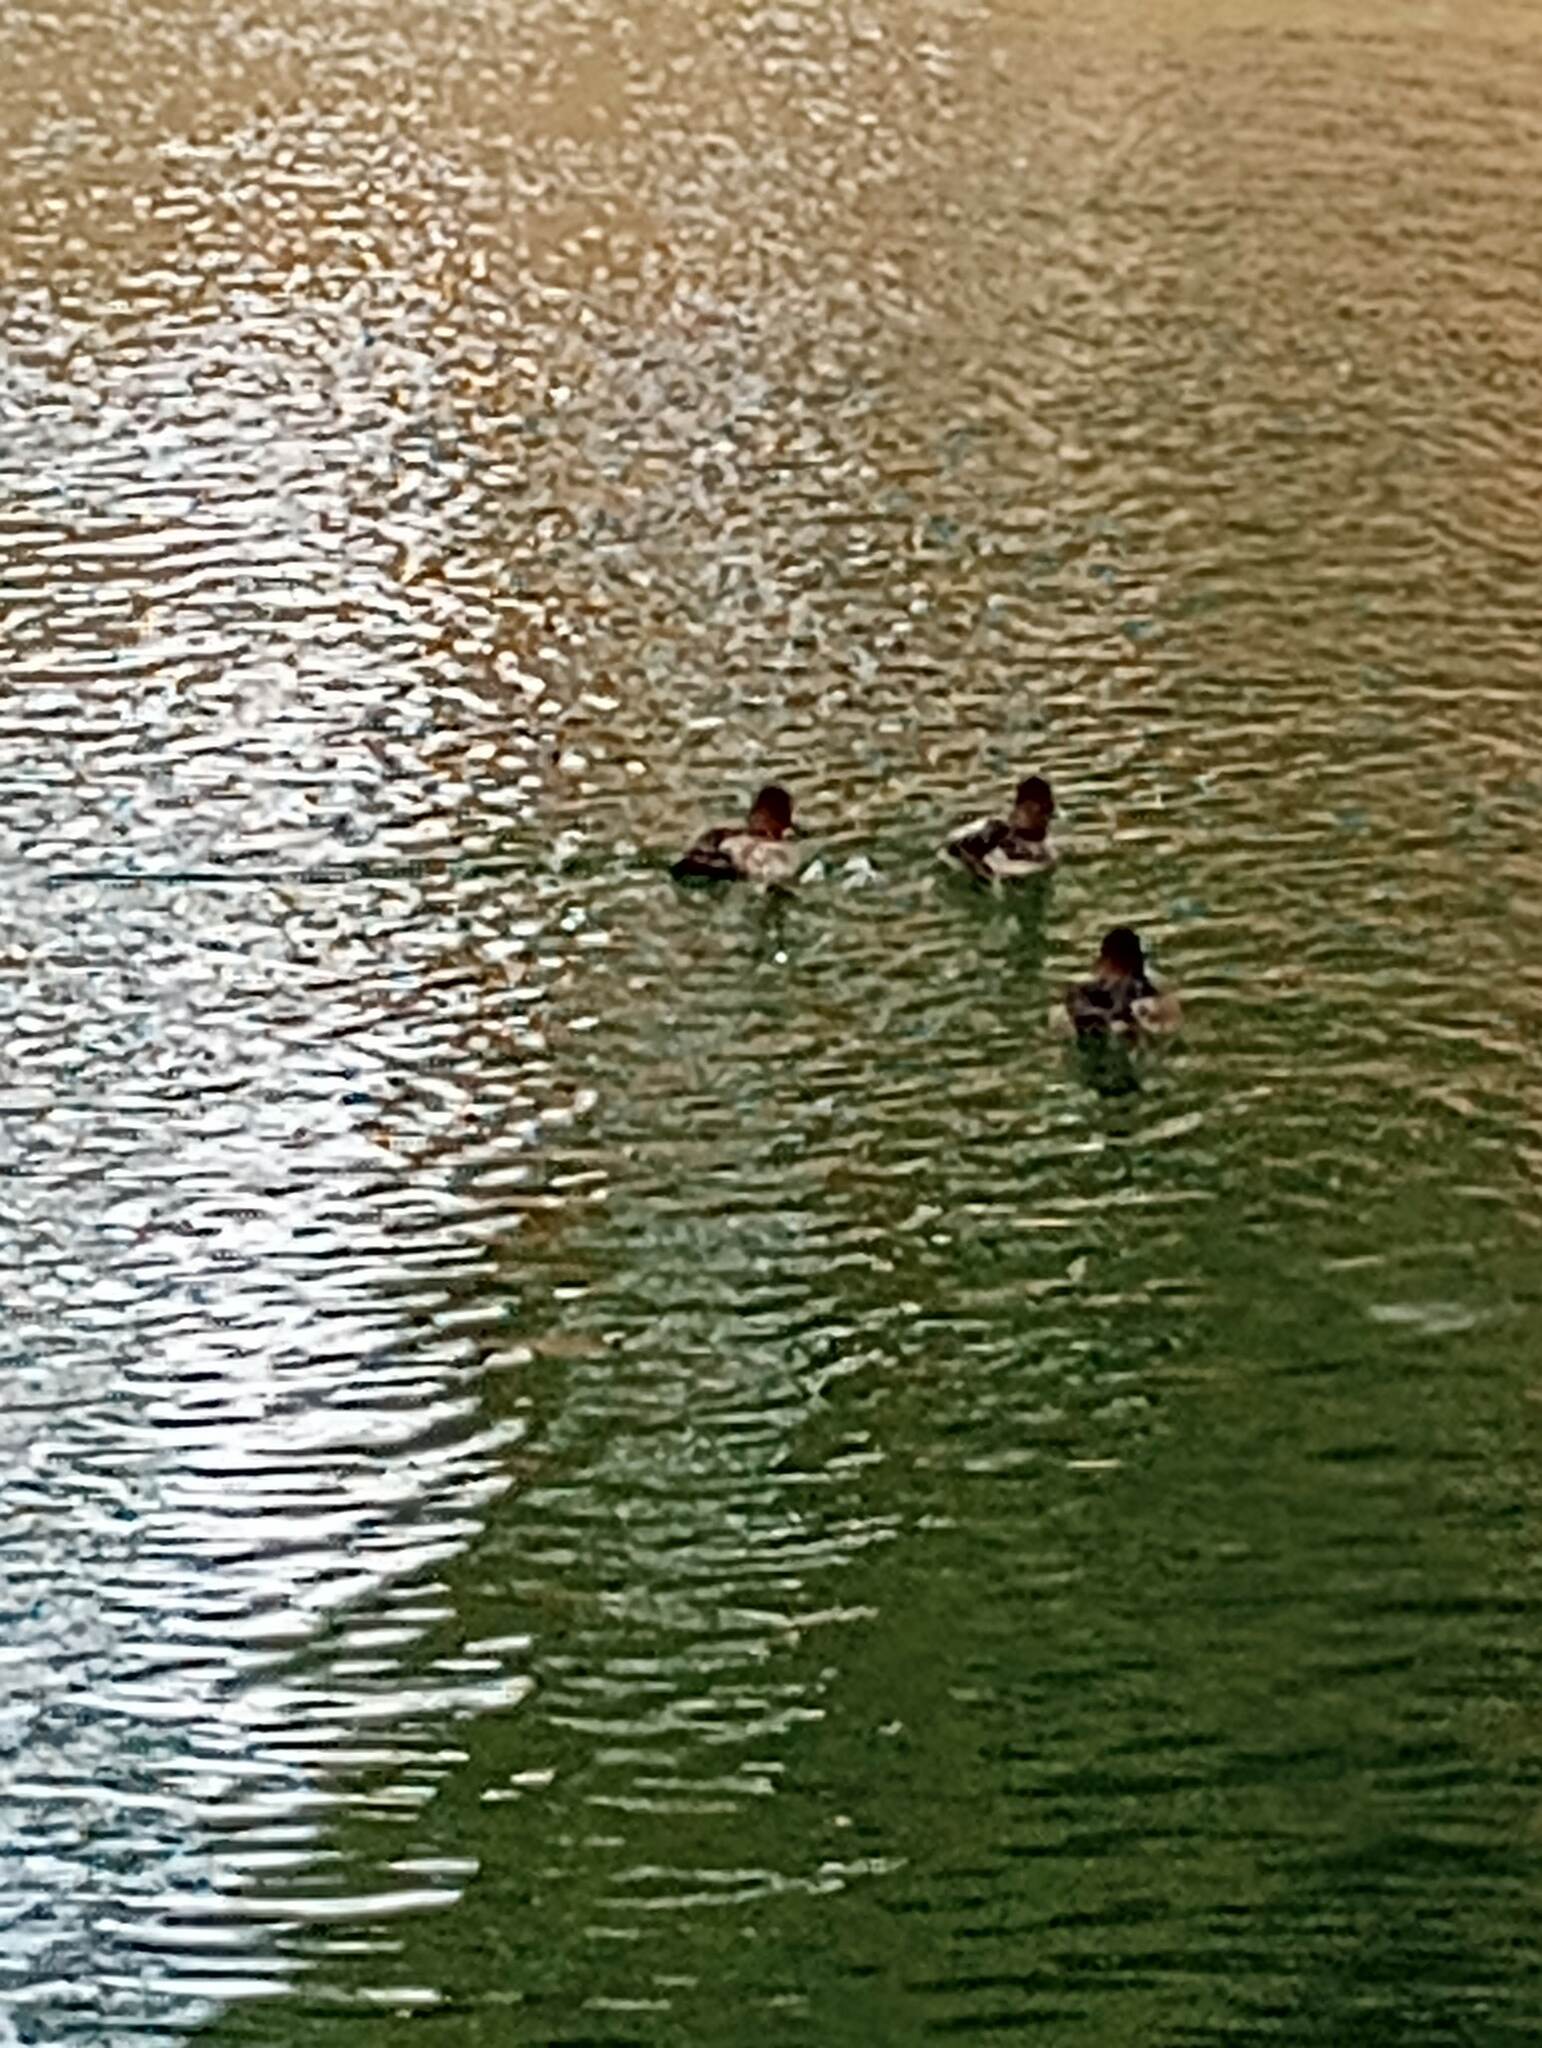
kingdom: Animalia
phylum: Chordata
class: Aves
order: Anseriformes
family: Anatidae
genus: Aythya
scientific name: Aythya affinis
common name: Lesser scaup
